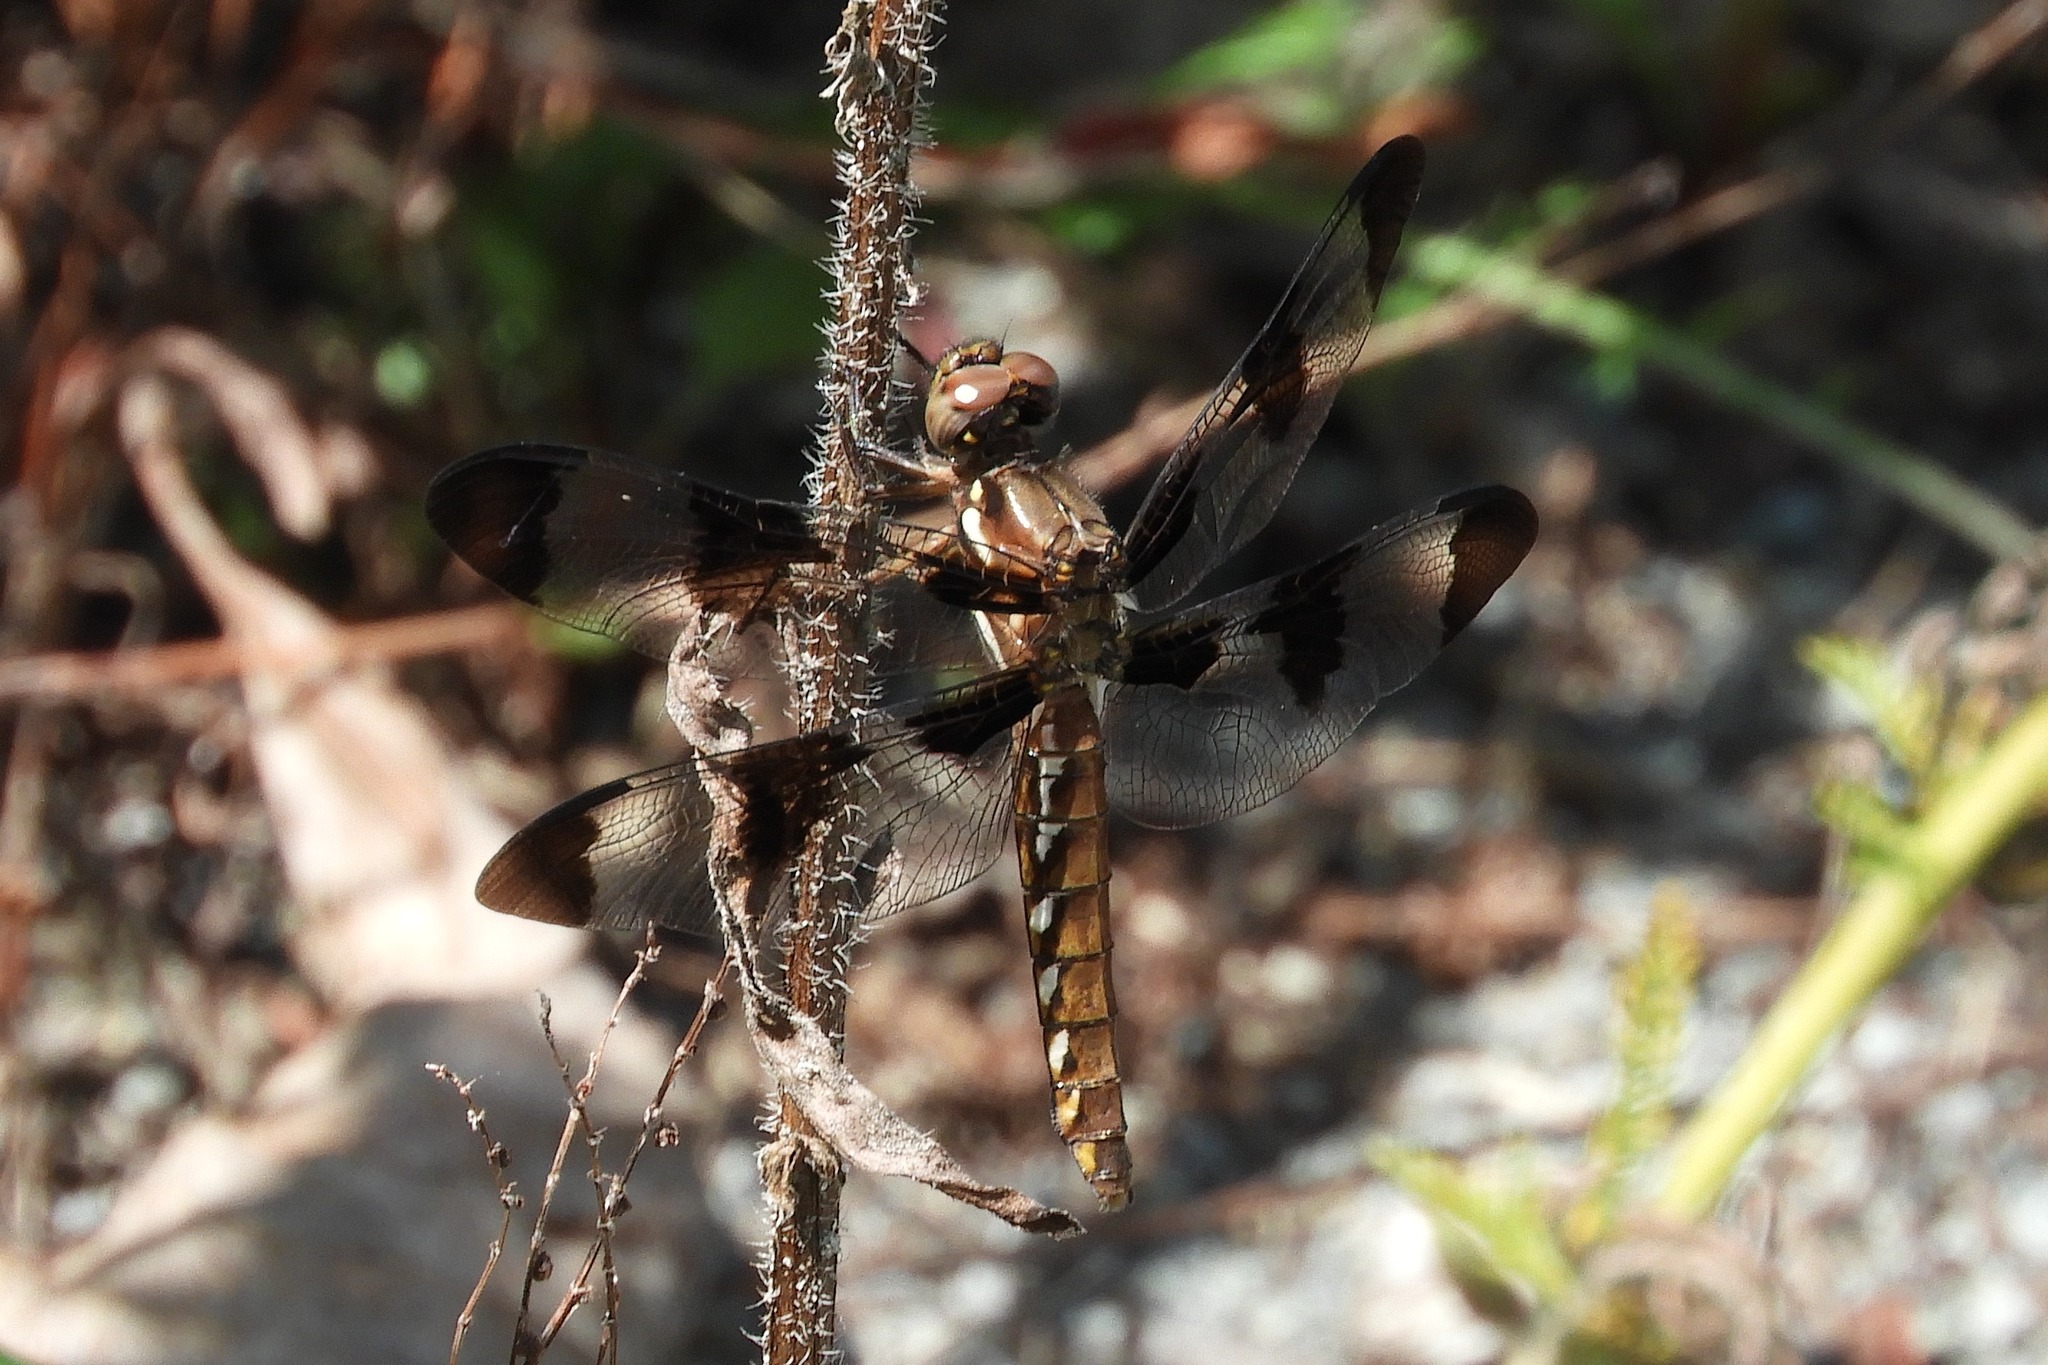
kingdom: Animalia
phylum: Arthropoda
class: Insecta
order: Odonata
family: Libellulidae
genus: Plathemis
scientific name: Plathemis lydia
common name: Common whitetail
